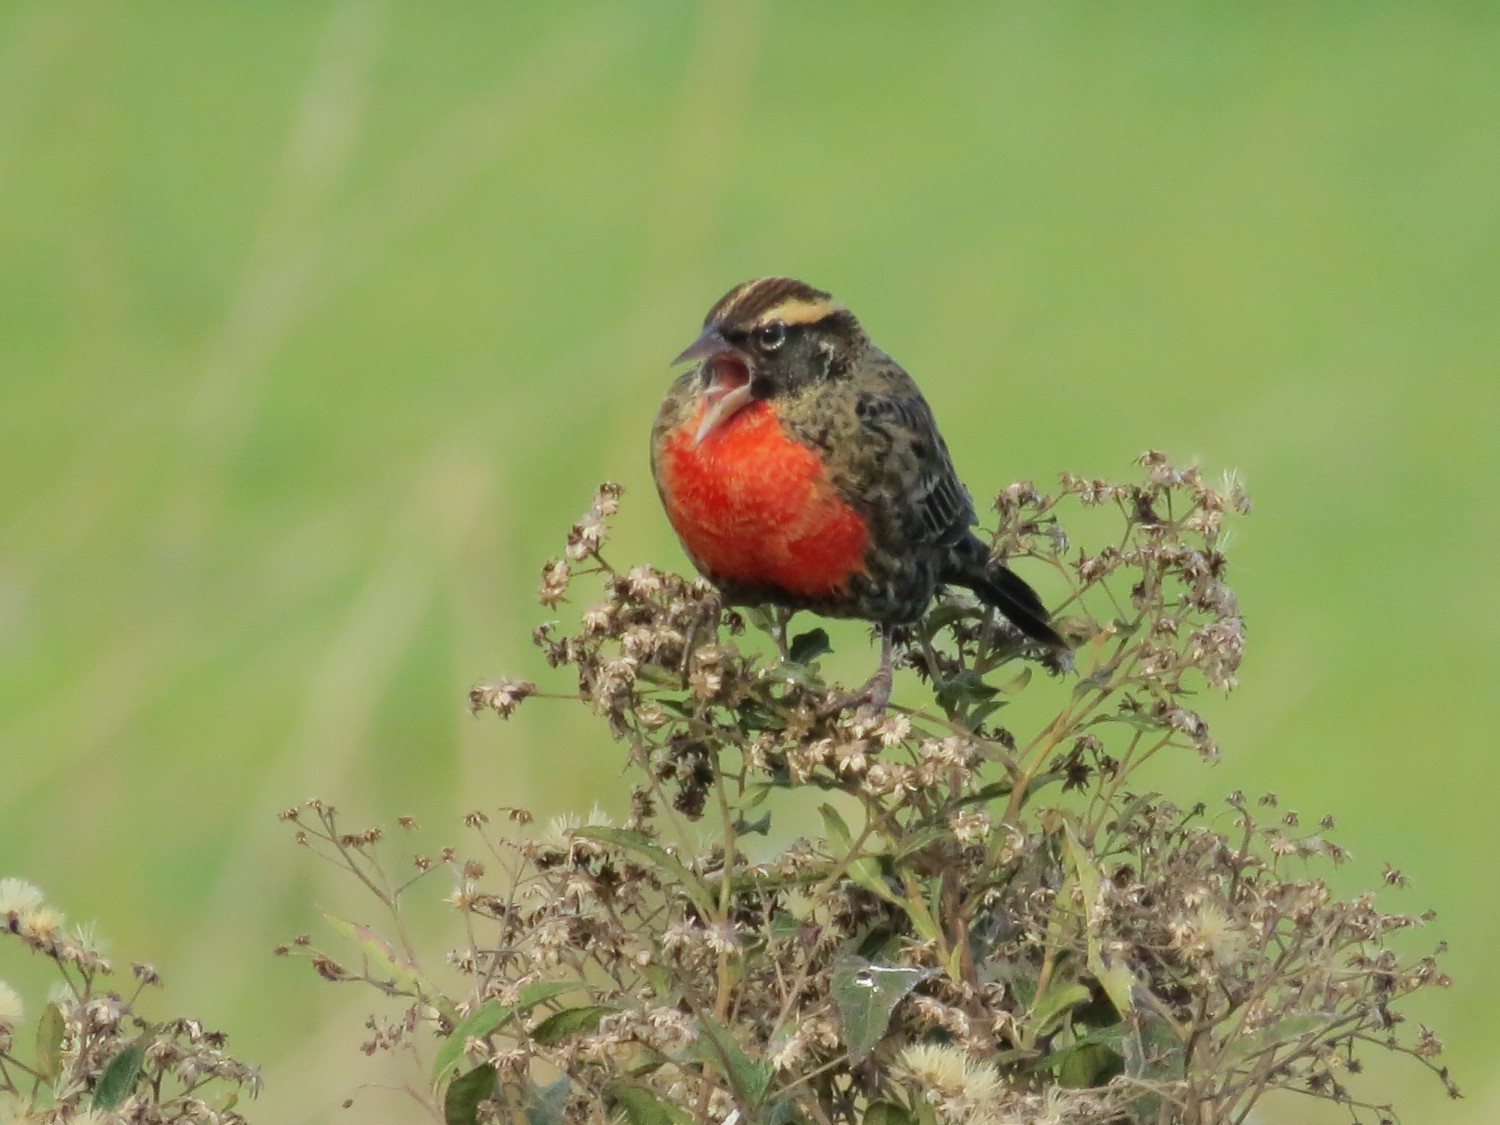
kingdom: Animalia
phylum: Chordata
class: Aves
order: Passeriformes
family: Icteridae
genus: Sturnella
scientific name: Sturnella superciliaris
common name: White-browed blackbird
